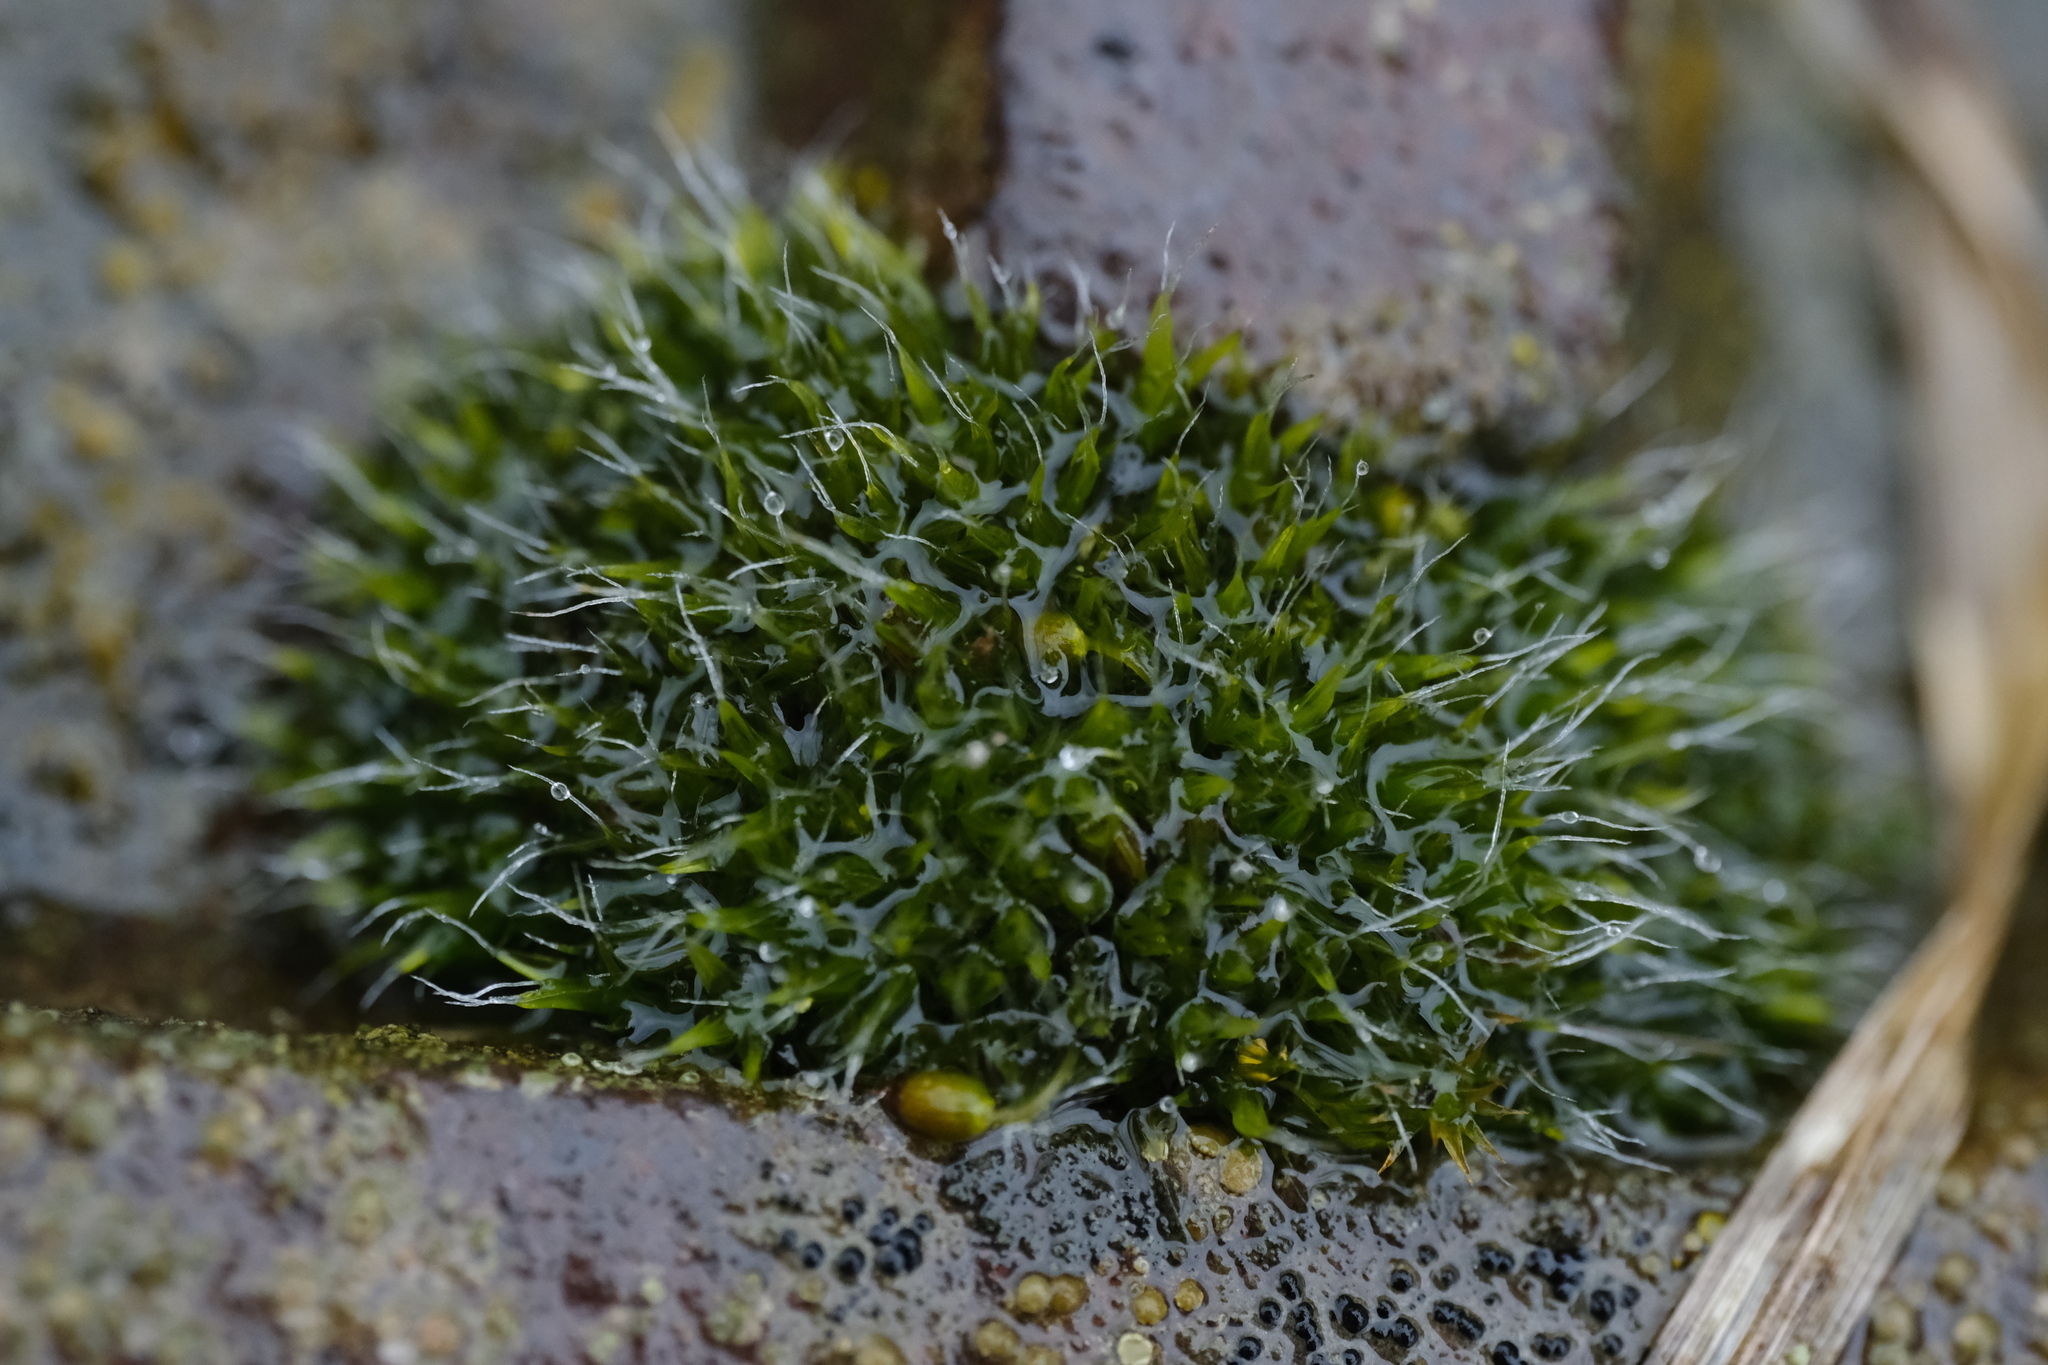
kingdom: Plantae
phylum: Bryophyta
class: Bryopsida
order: Grimmiales
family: Grimmiaceae
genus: Grimmia
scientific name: Grimmia pulvinata
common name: Grey-cushioned grimmia
